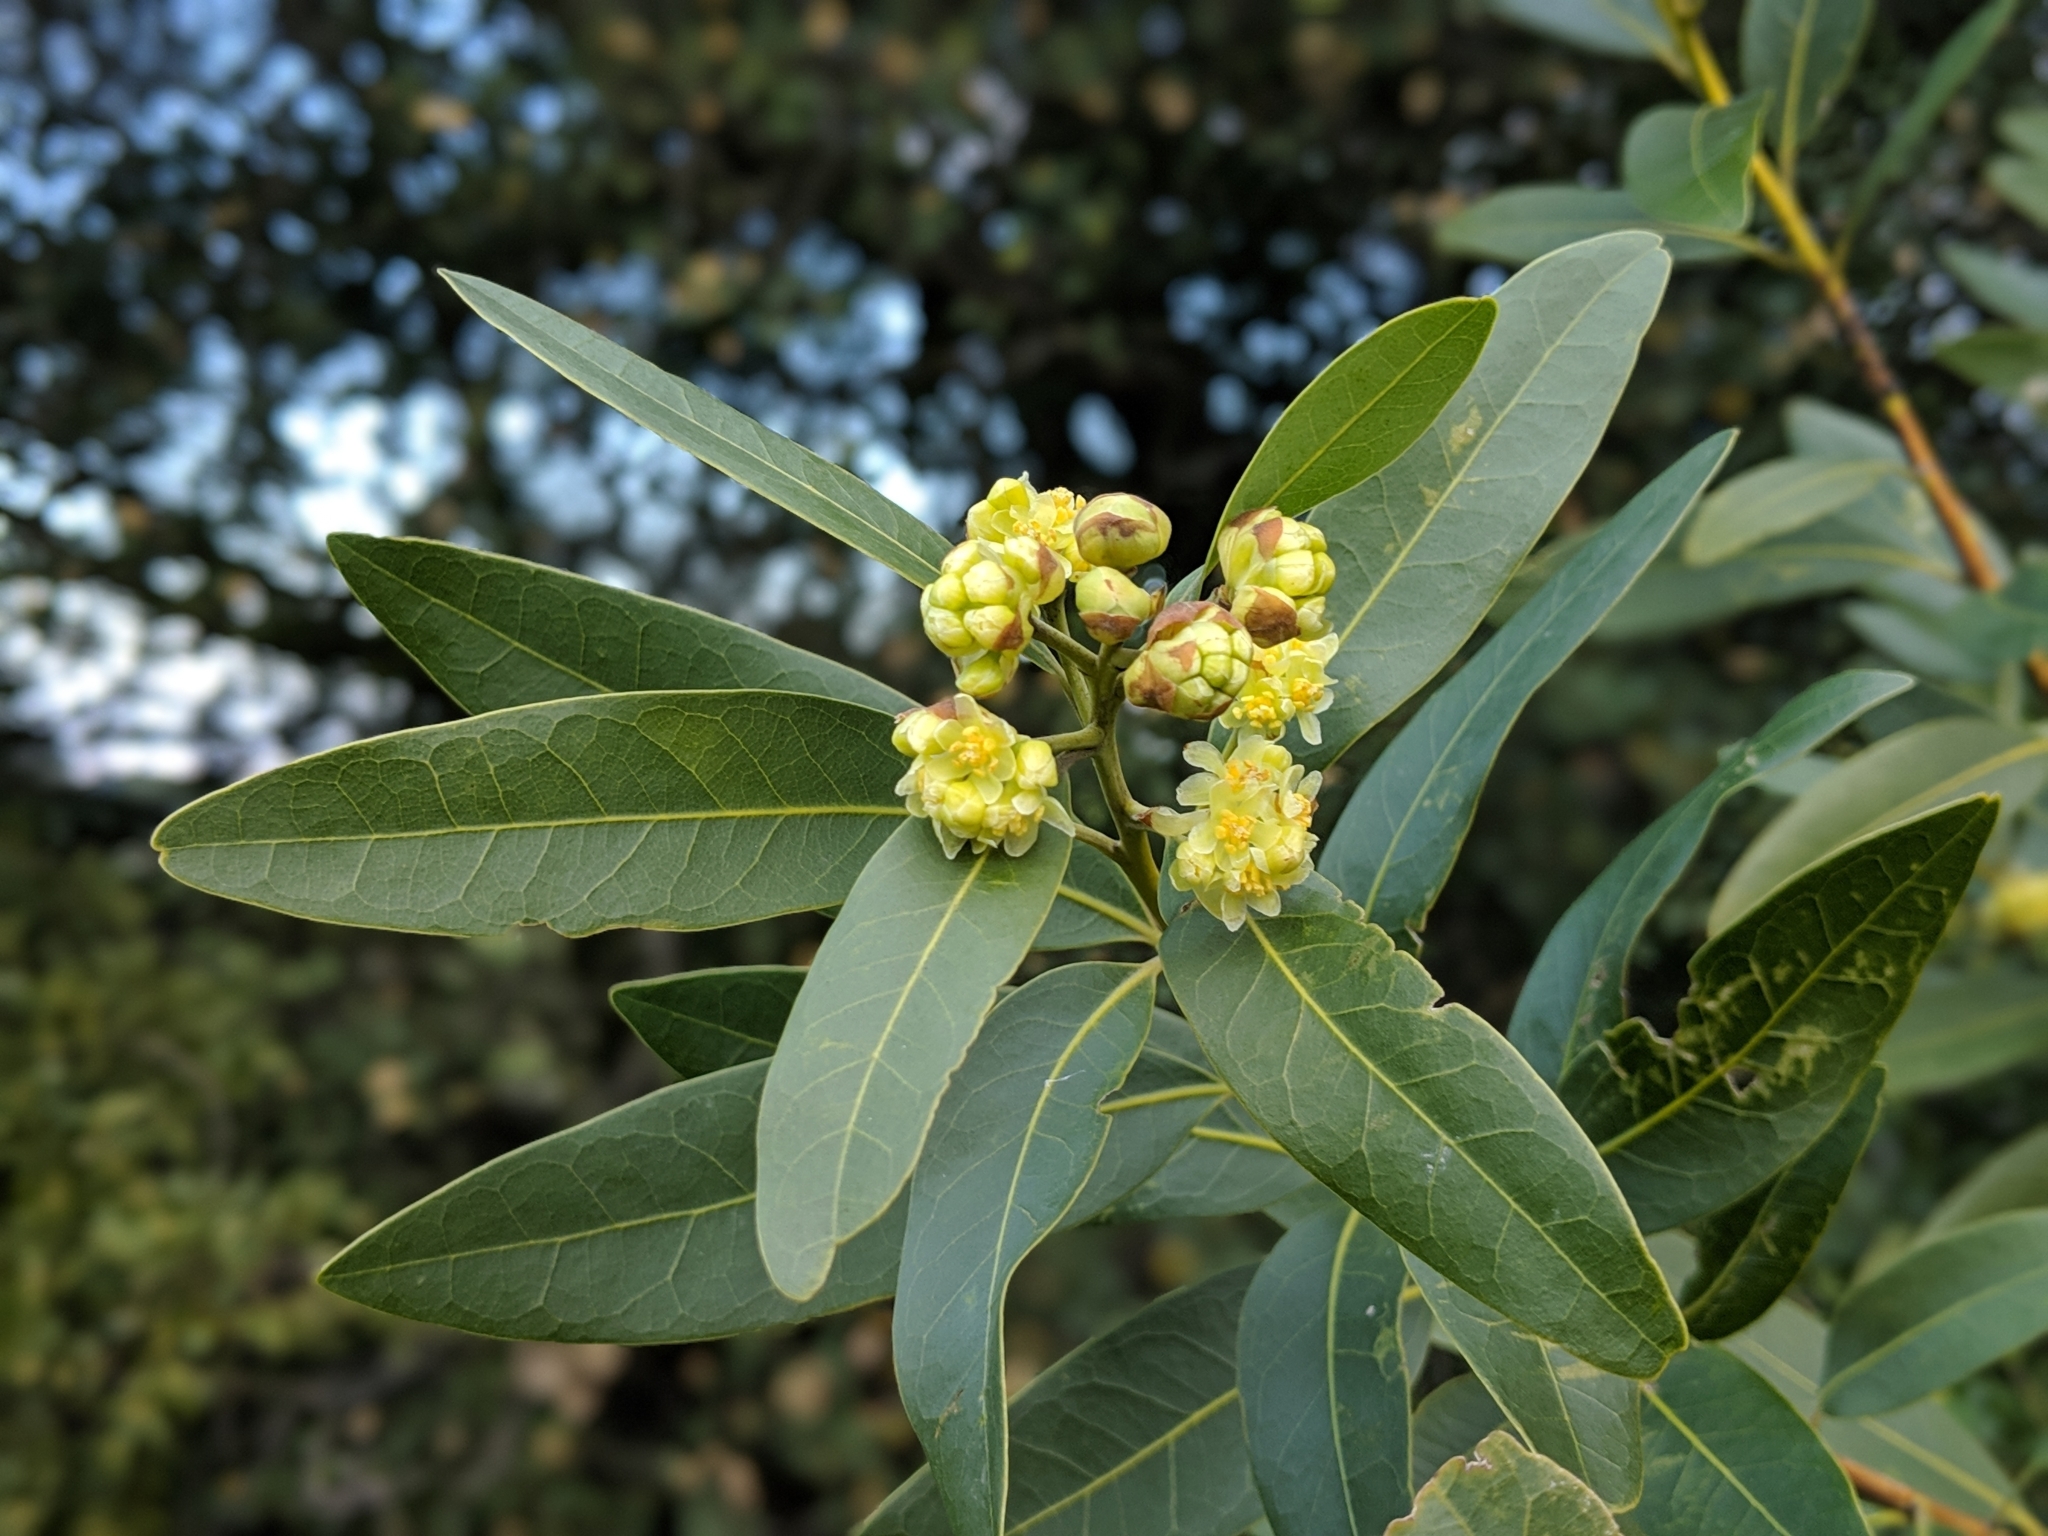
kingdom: Plantae
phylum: Tracheophyta
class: Magnoliopsida
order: Laurales
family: Lauraceae
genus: Umbellularia
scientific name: Umbellularia californica
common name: California bay
